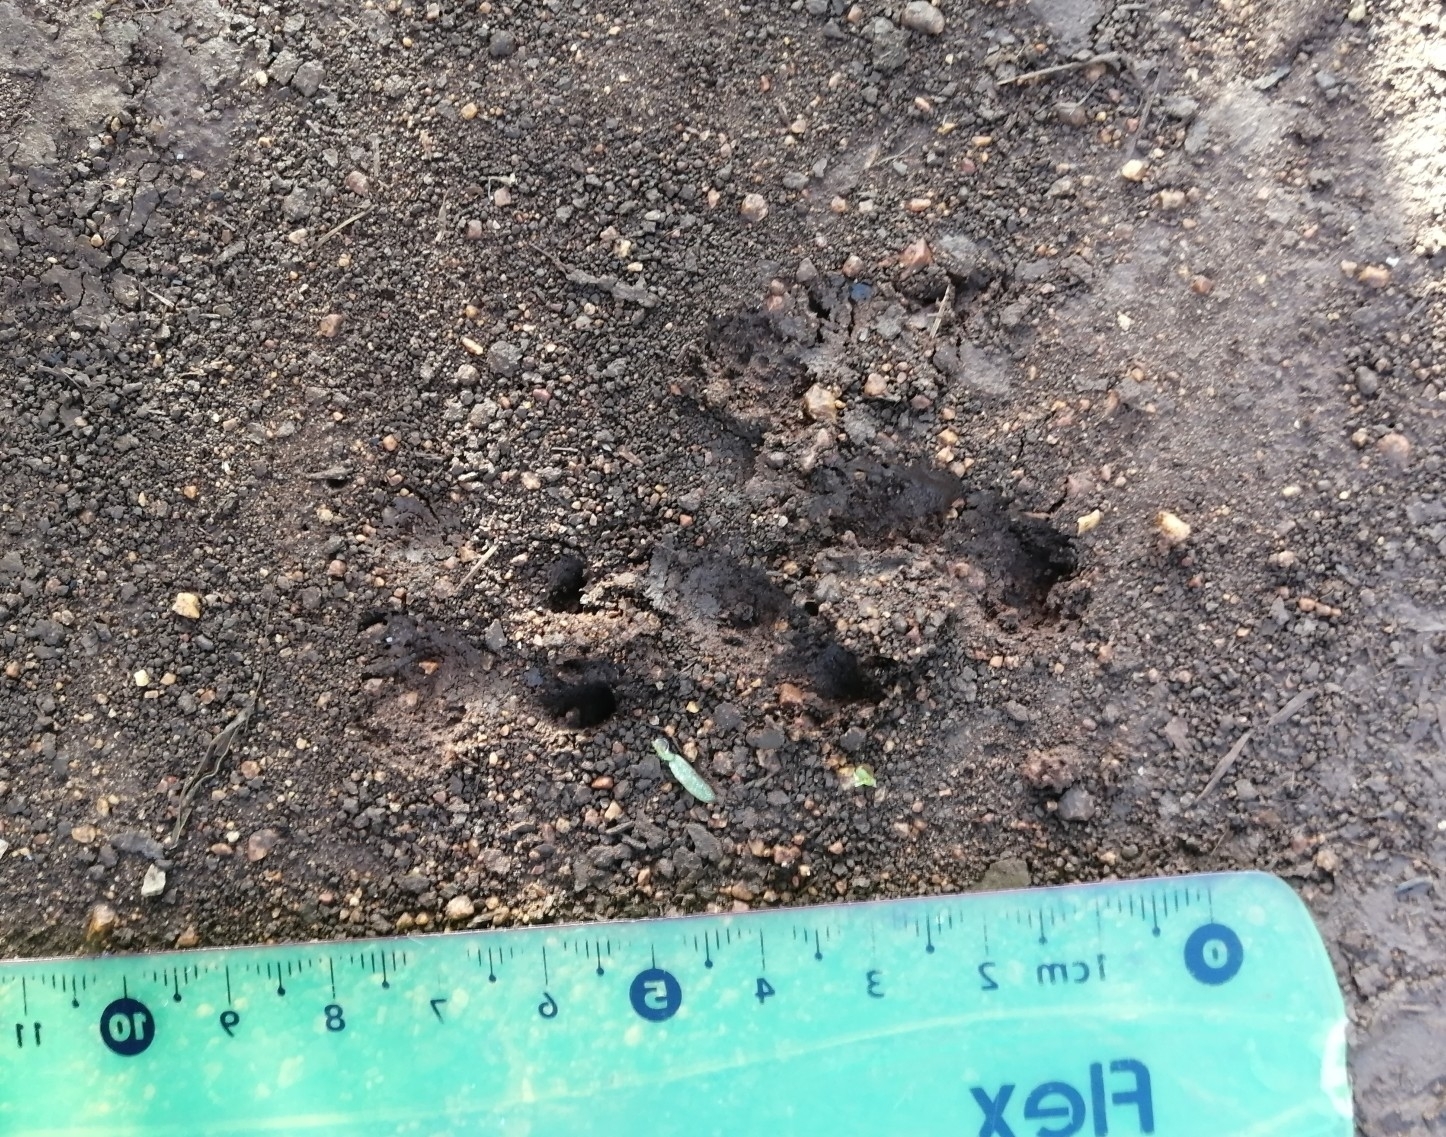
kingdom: Animalia
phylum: Chordata
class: Mammalia
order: Cingulata
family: Dasypodidae
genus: Dasypus
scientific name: Dasypus novemcinctus
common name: Nine-banded armadillo
